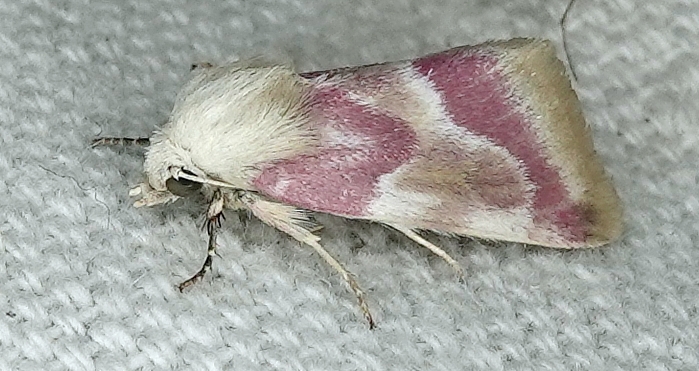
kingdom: Animalia
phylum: Arthropoda
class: Insecta
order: Lepidoptera
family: Noctuidae
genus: Schinia
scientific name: Schinia regina
